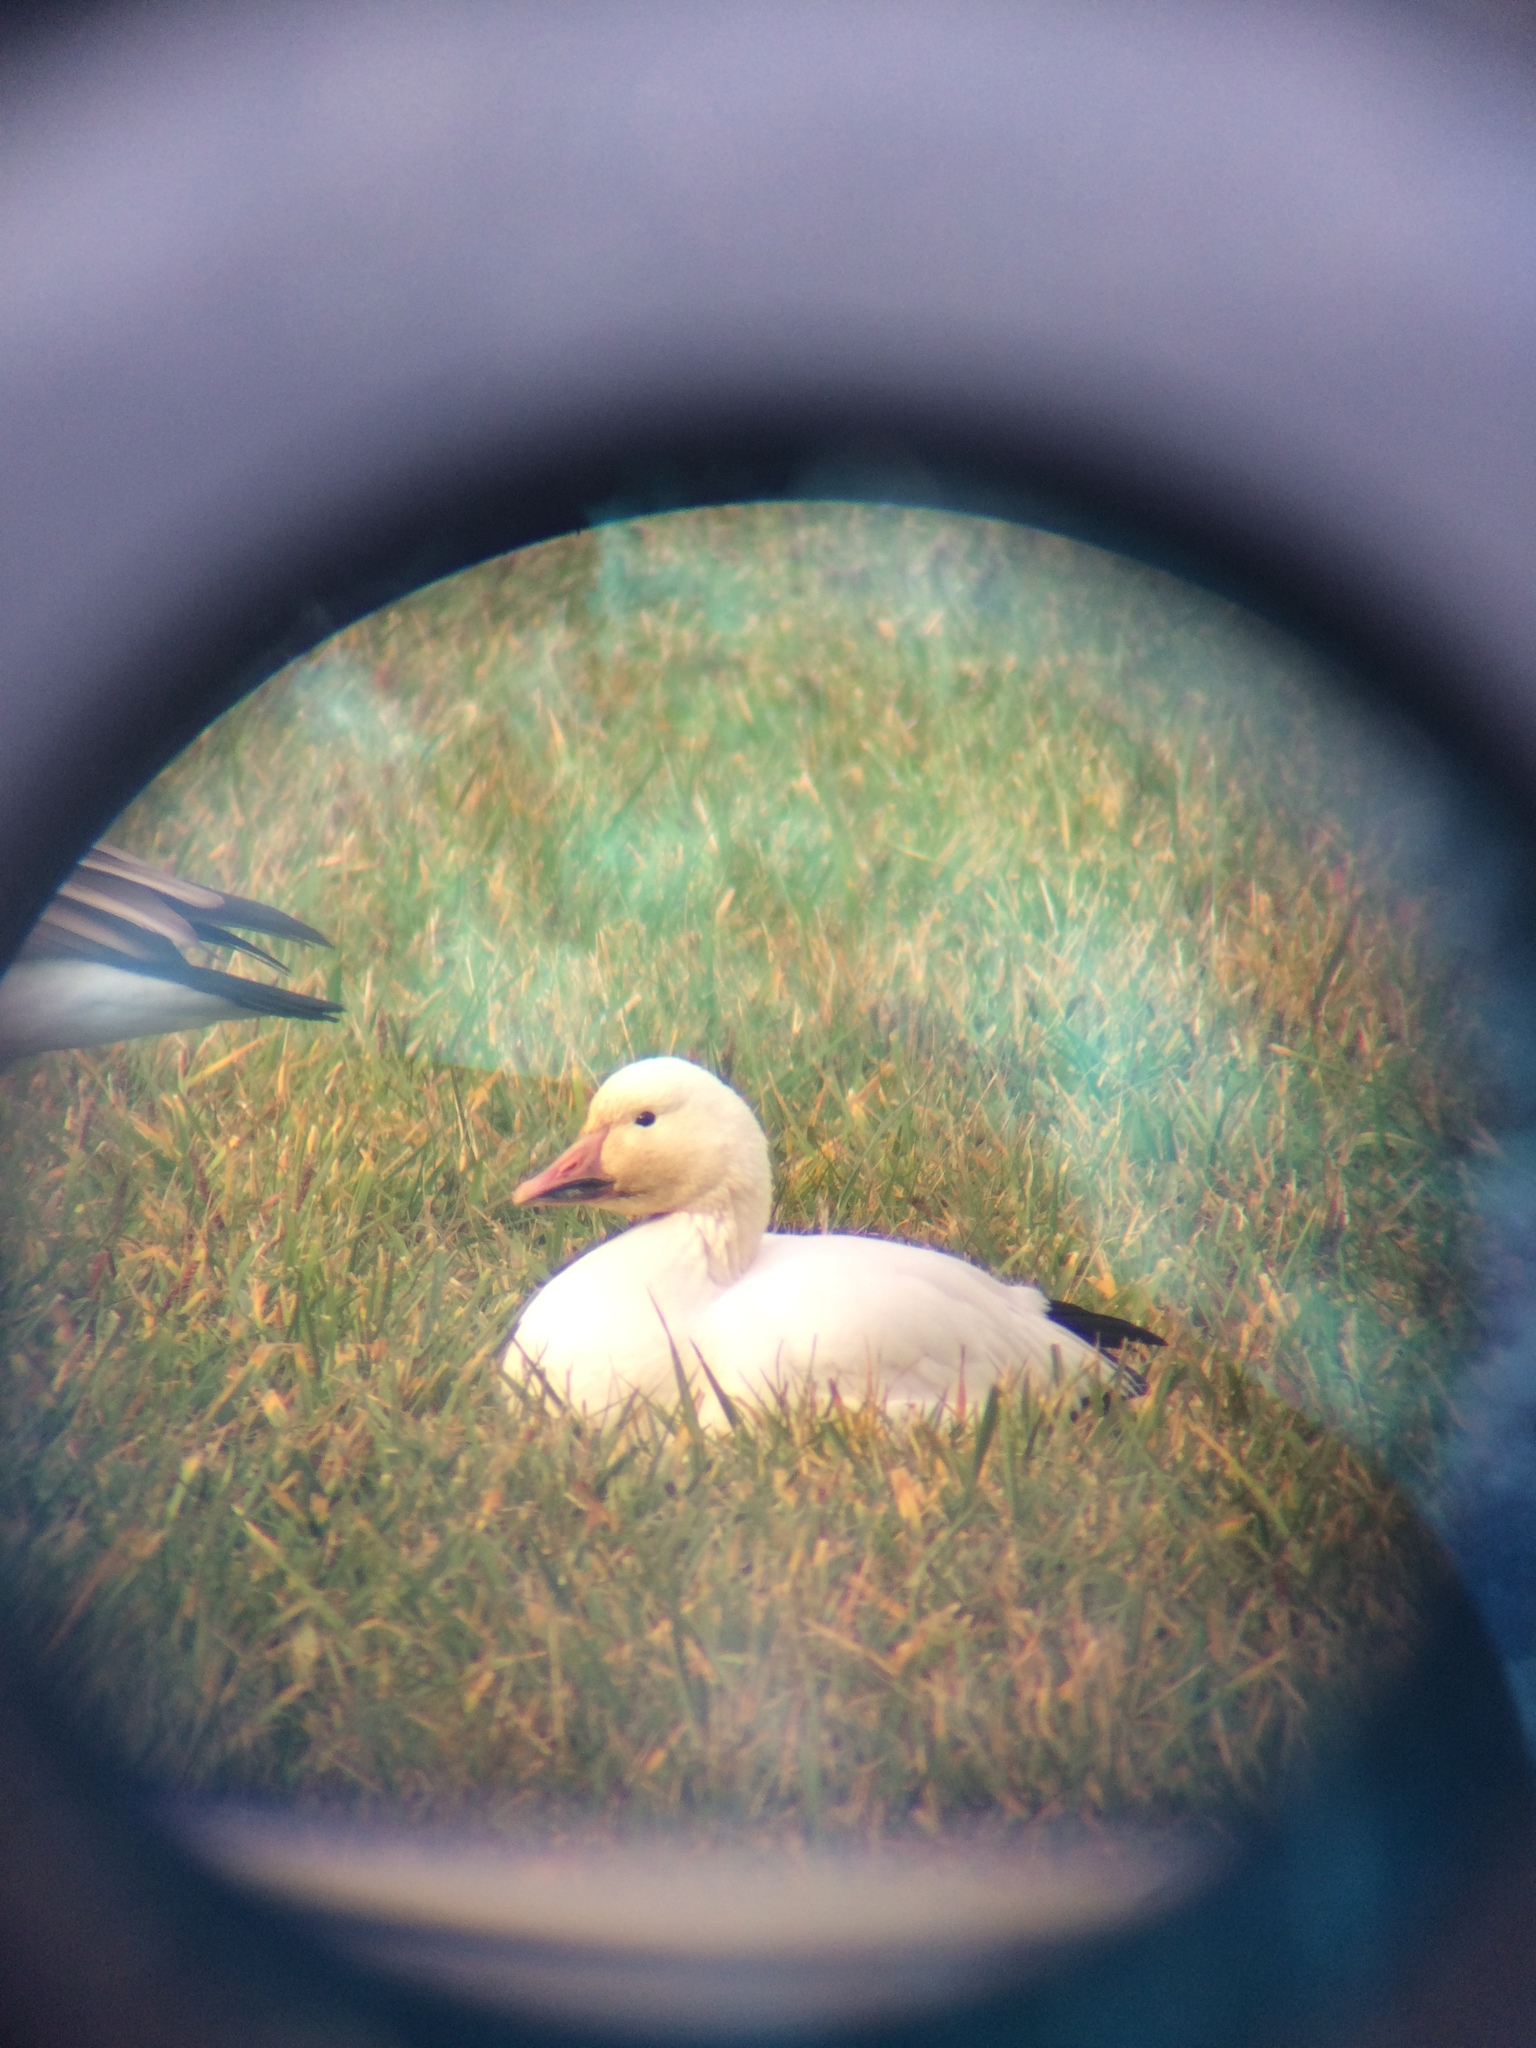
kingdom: Animalia
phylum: Chordata
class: Aves
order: Anseriformes
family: Anatidae
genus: Anser
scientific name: Anser caerulescens
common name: Snow goose
